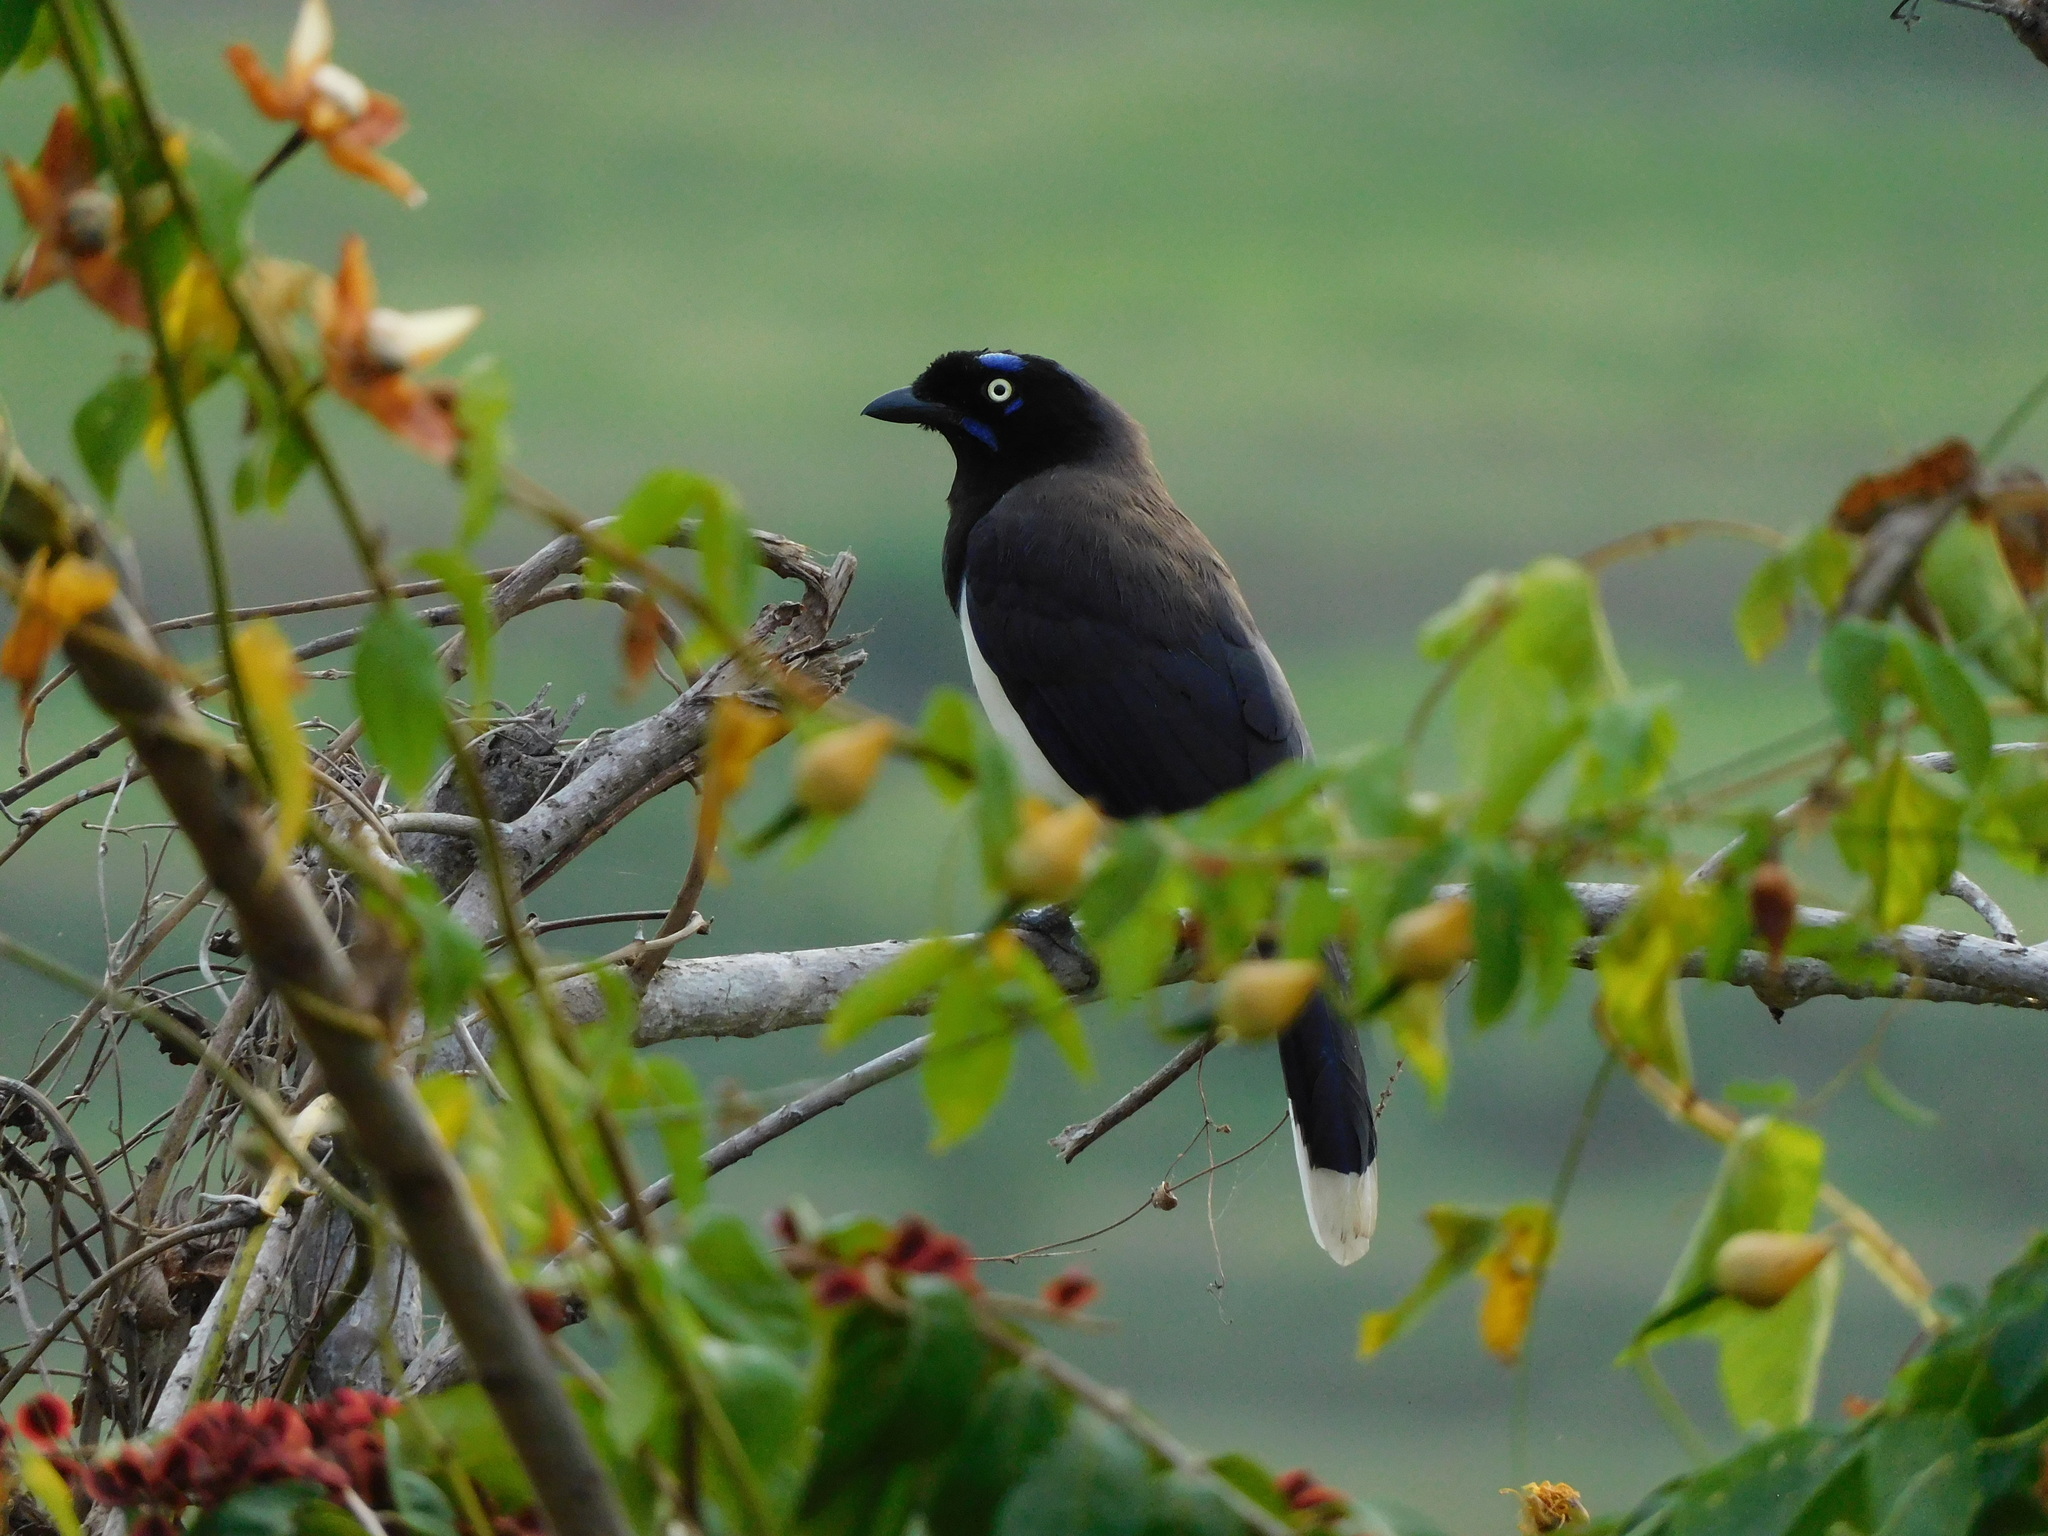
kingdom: Animalia
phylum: Chordata
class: Aves
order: Passeriformes
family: Corvidae
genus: Cyanocorax
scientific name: Cyanocorax affinis
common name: Black-chested jay
